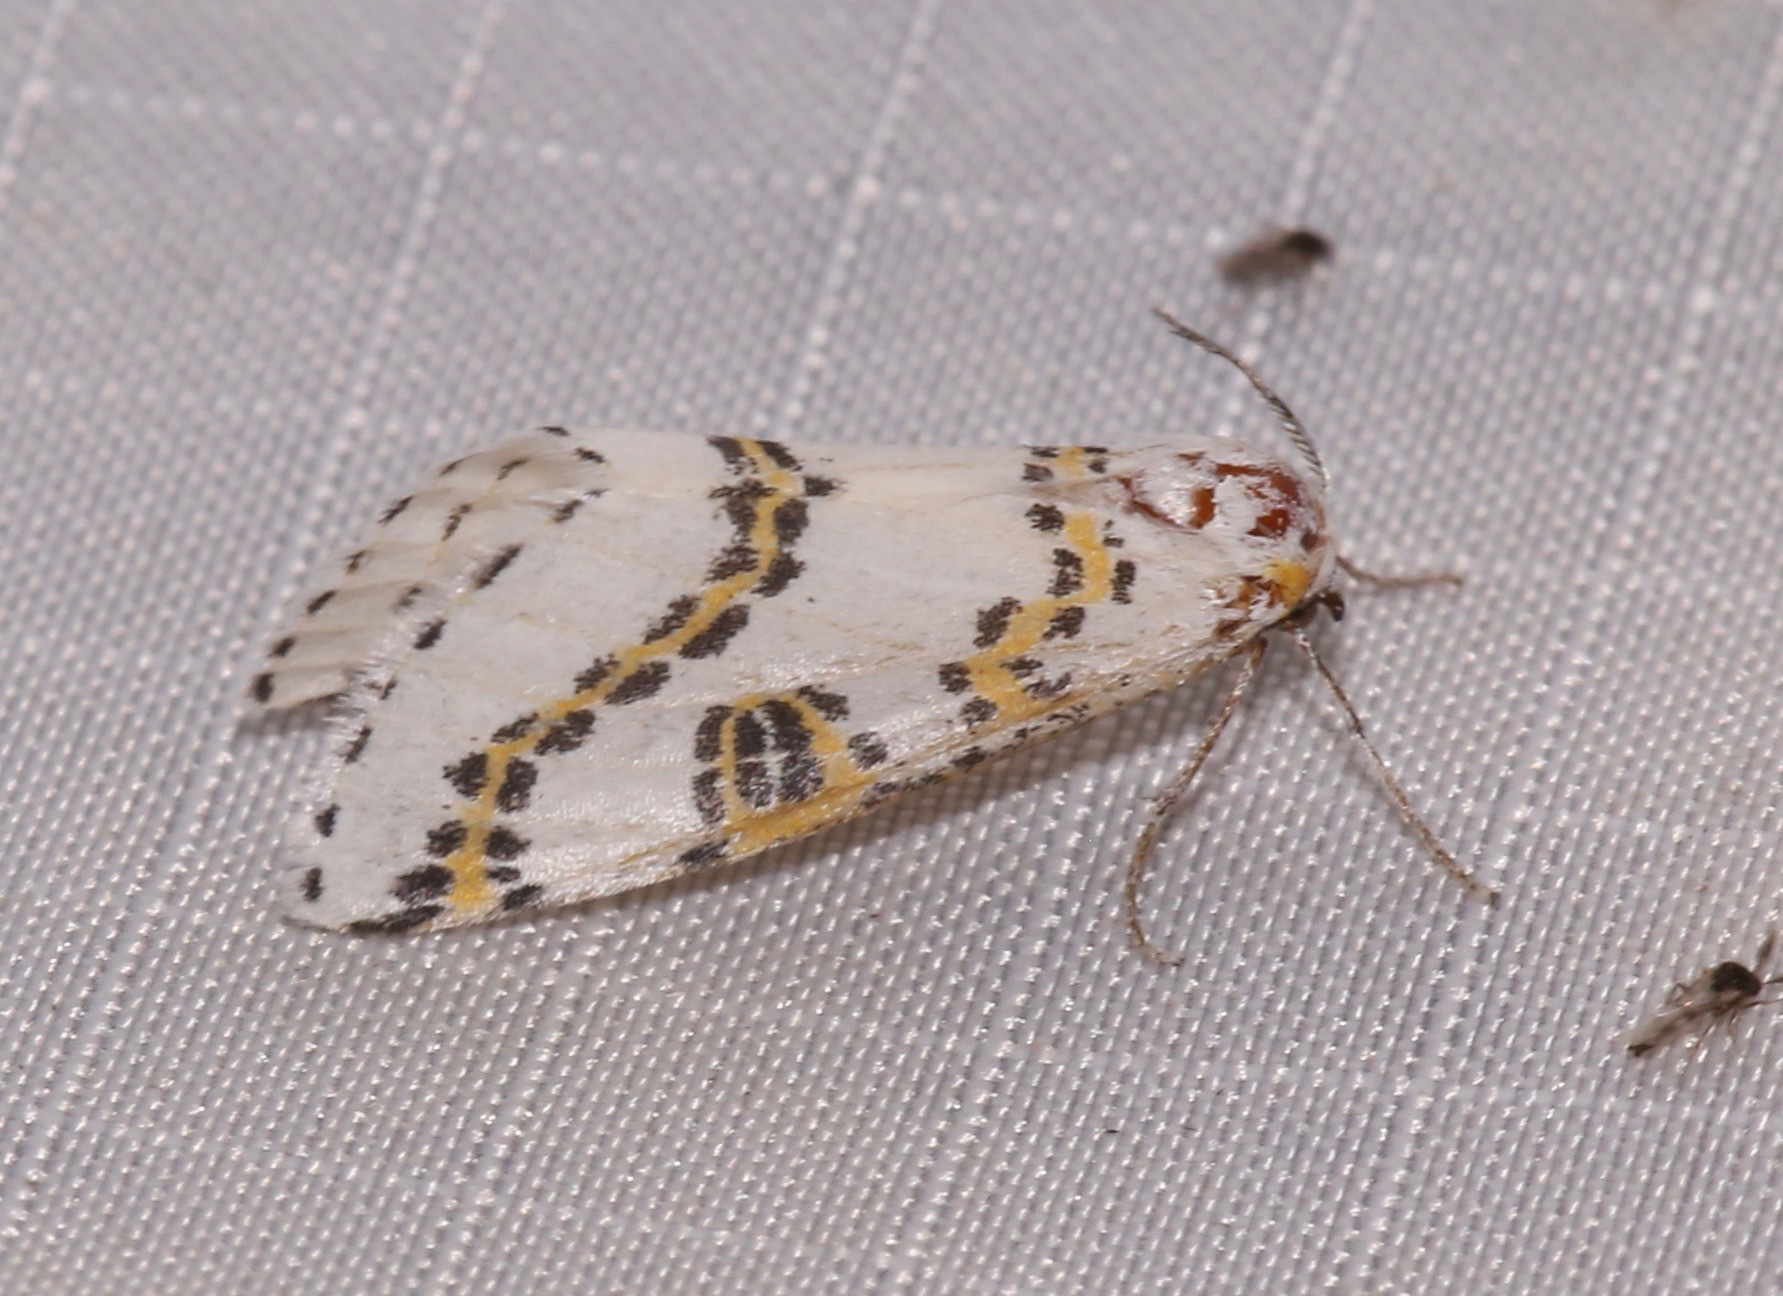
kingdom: Animalia
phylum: Arthropoda
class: Insecta
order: Lepidoptera
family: Geometridae
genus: Philtraea
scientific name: Philtraea elegantaria
